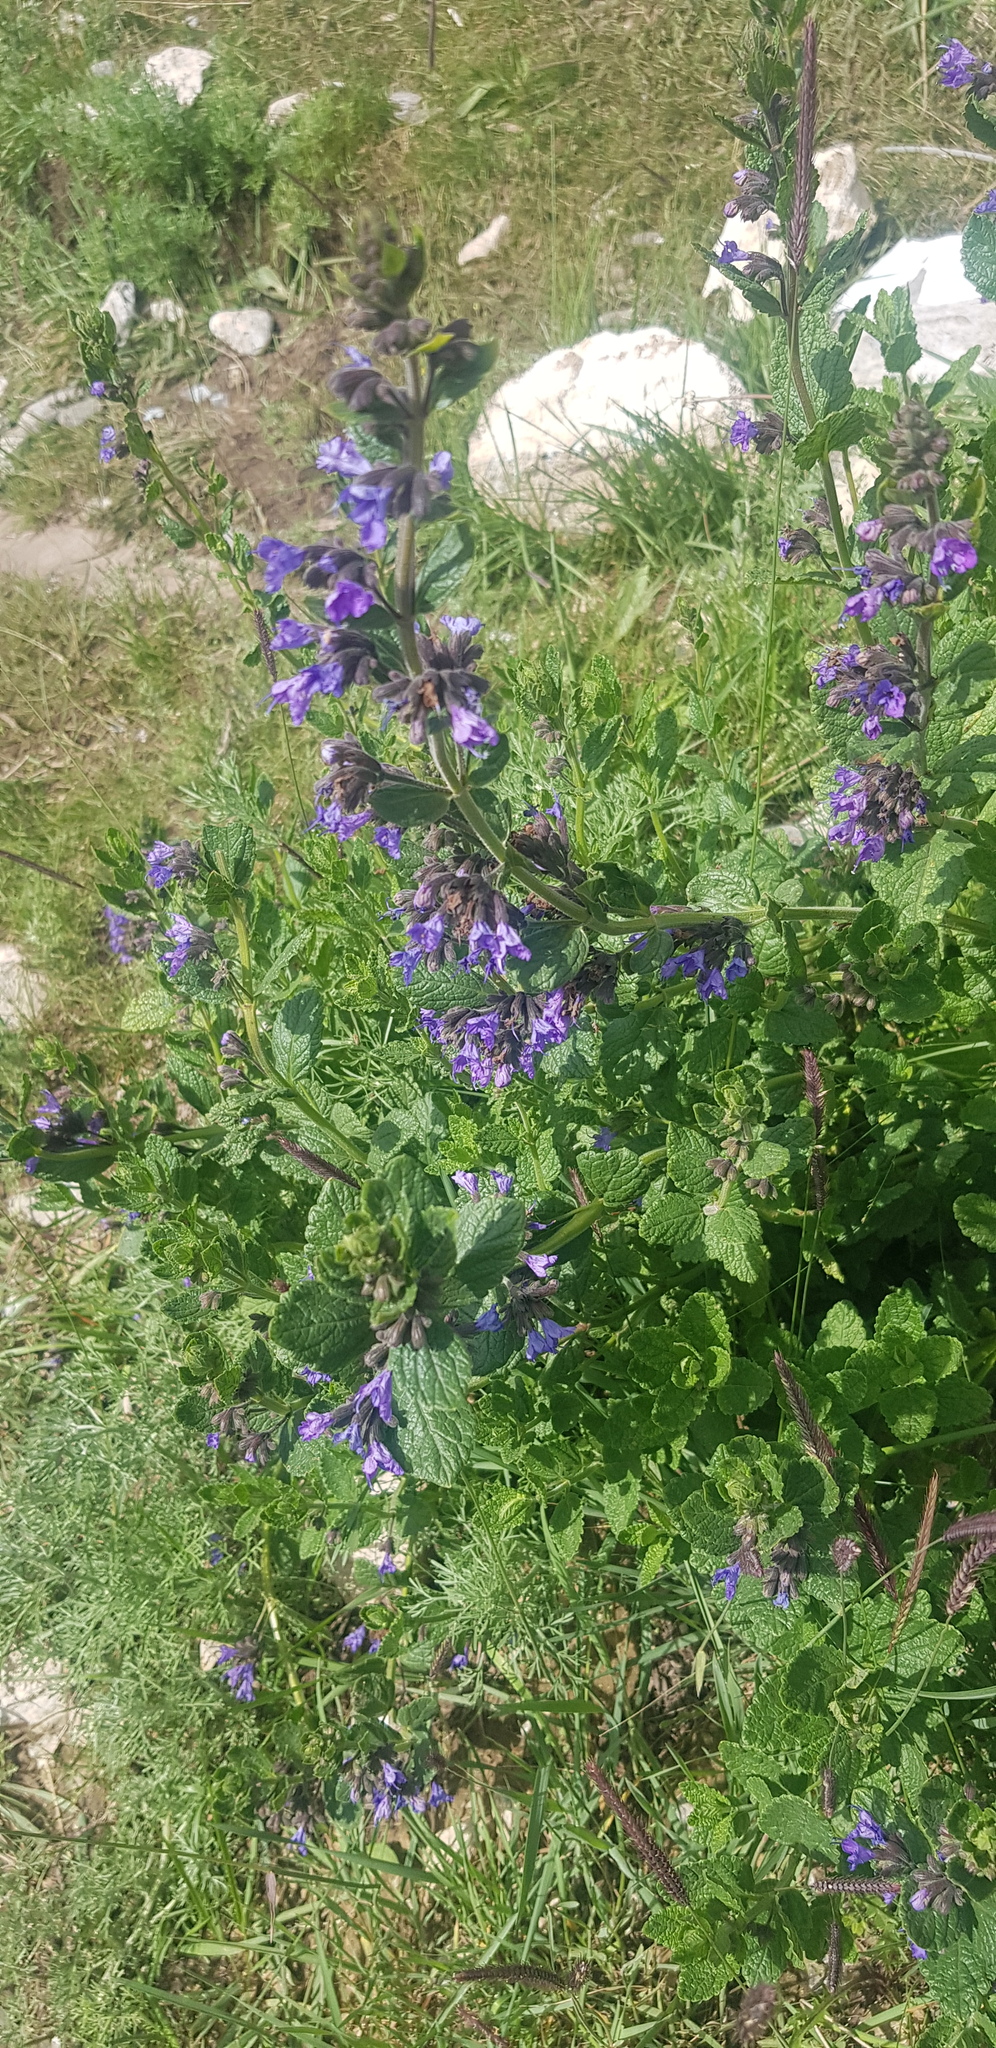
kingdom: Plantae
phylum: Tracheophyta
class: Magnoliopsida
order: Lamiales
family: Lamiaceae
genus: Nepeta
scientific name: Nepeta lophanthus
